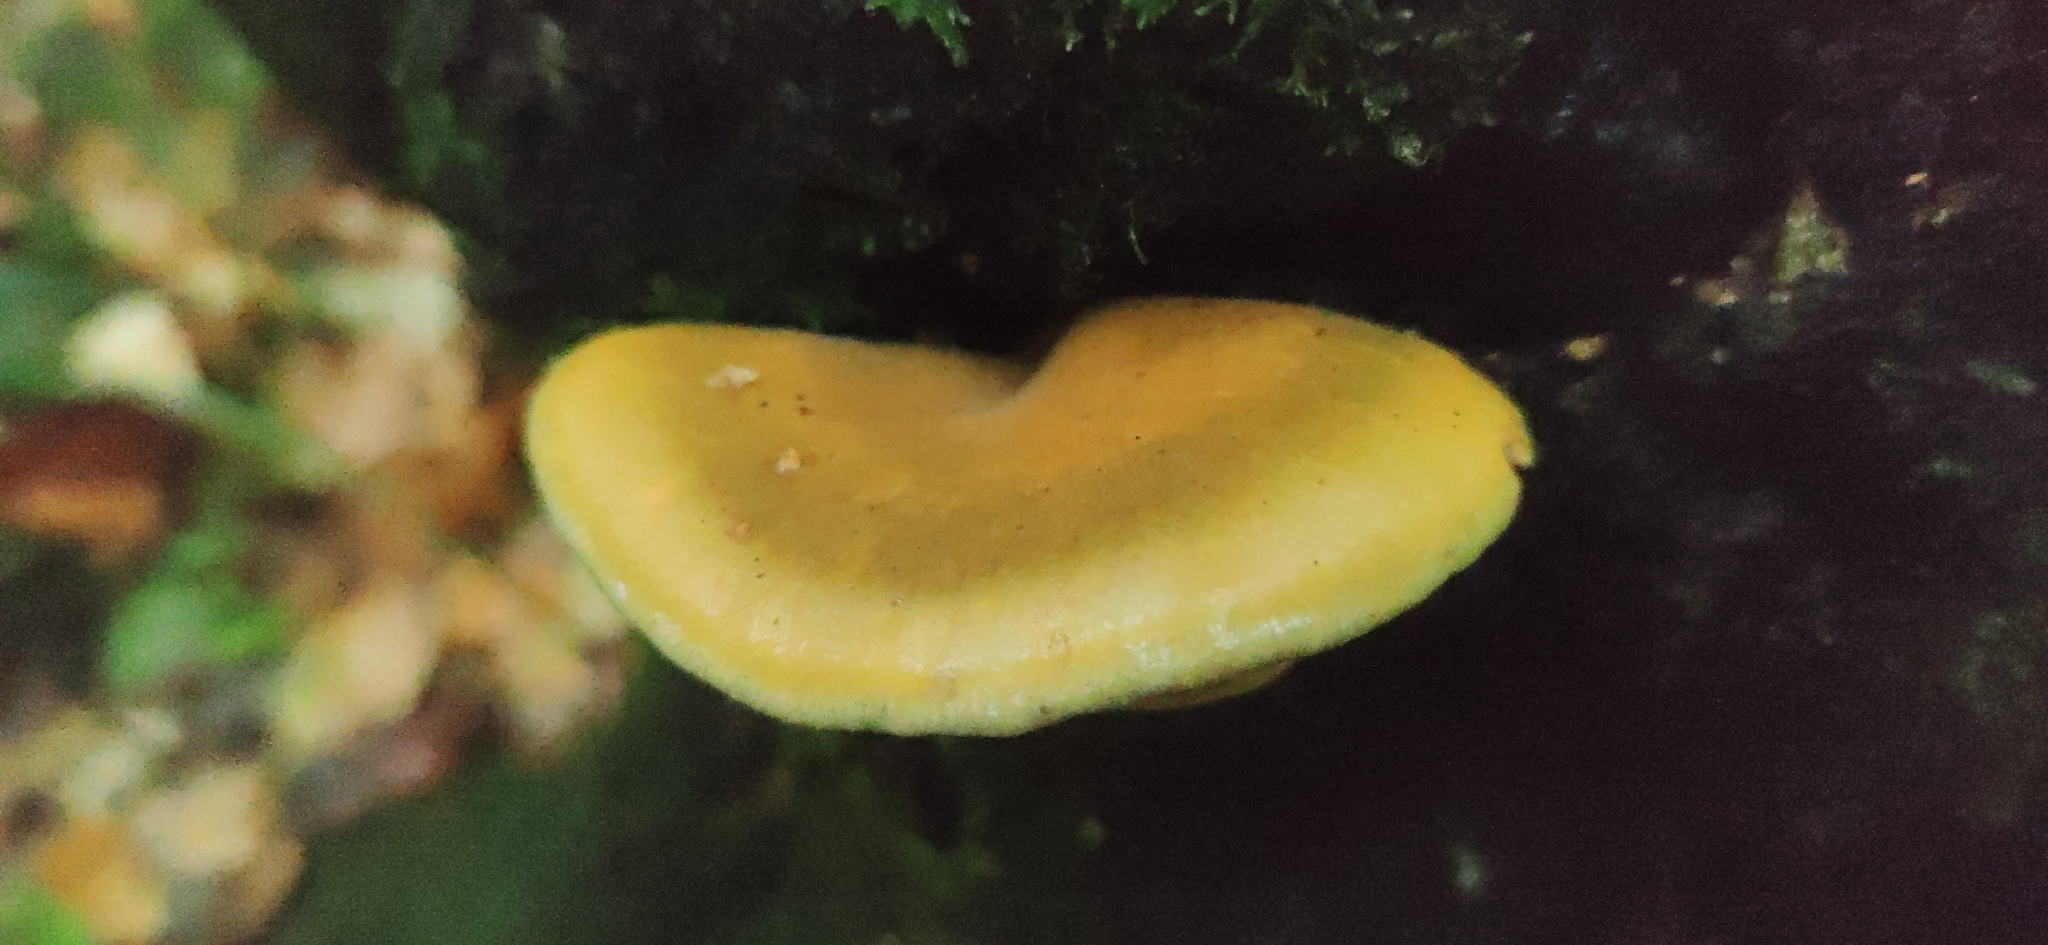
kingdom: Fungi
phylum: Basidiomycota
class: Agaricomycetes
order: Agaricales
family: Sarcomyxaceae
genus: Sarcomyxa
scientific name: Sarcomyxa serotina
